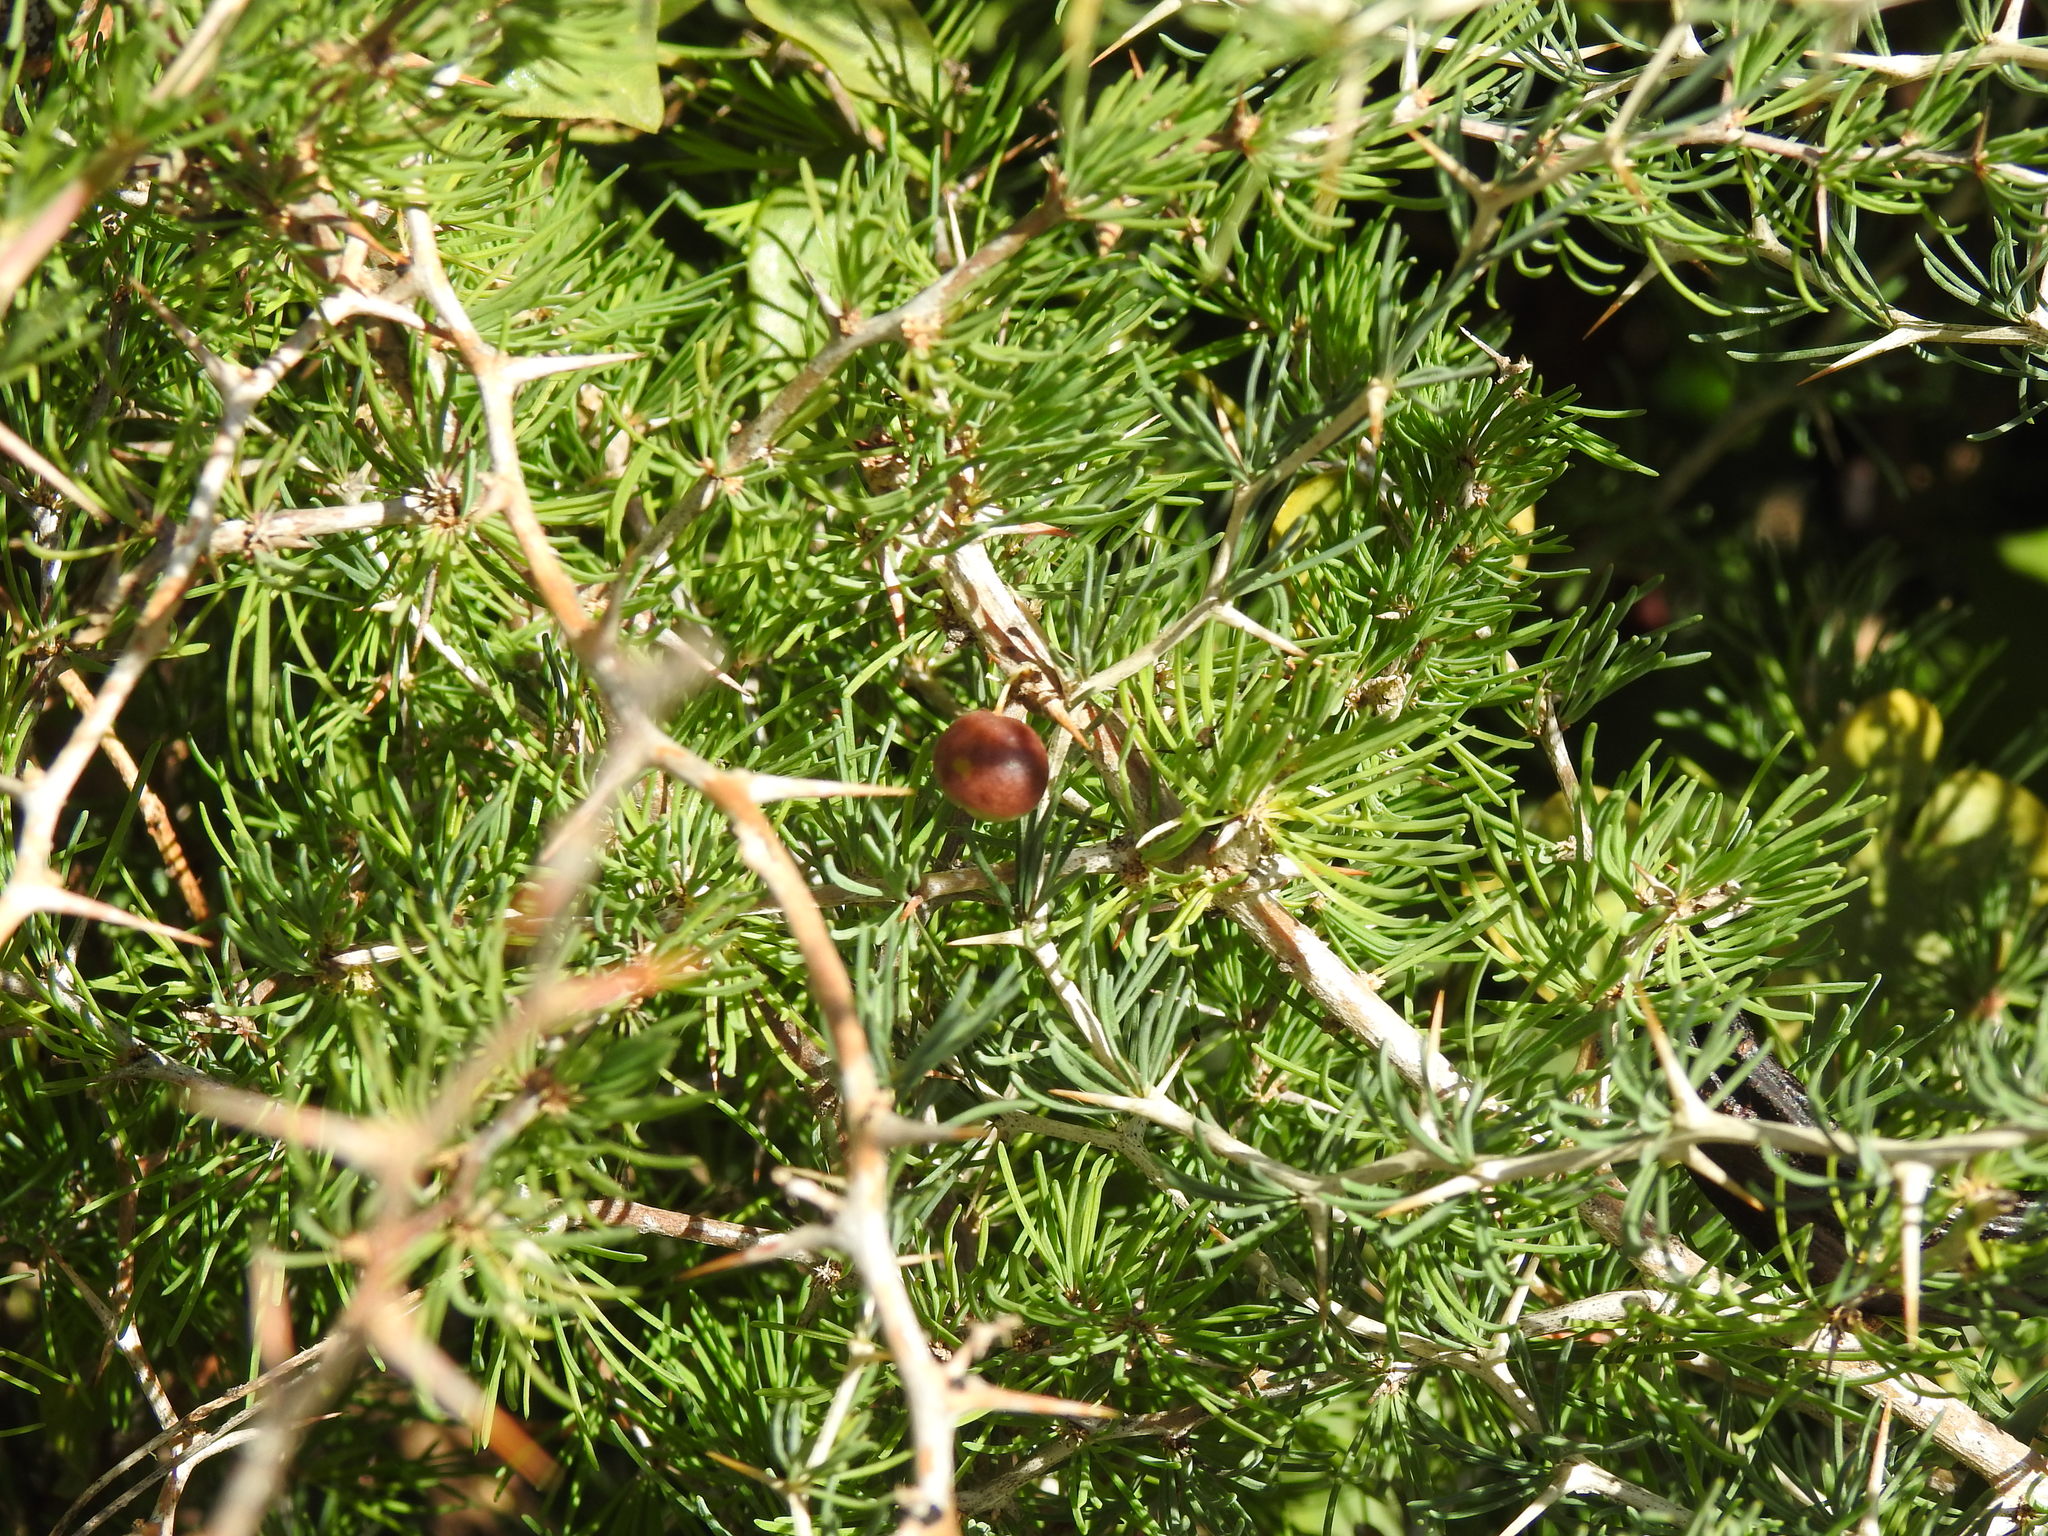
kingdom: Plantae
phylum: Tracheophyta
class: Liliopsida
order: Asparagales
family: Asparagaceae
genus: Asparagus
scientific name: Asparagus albus
